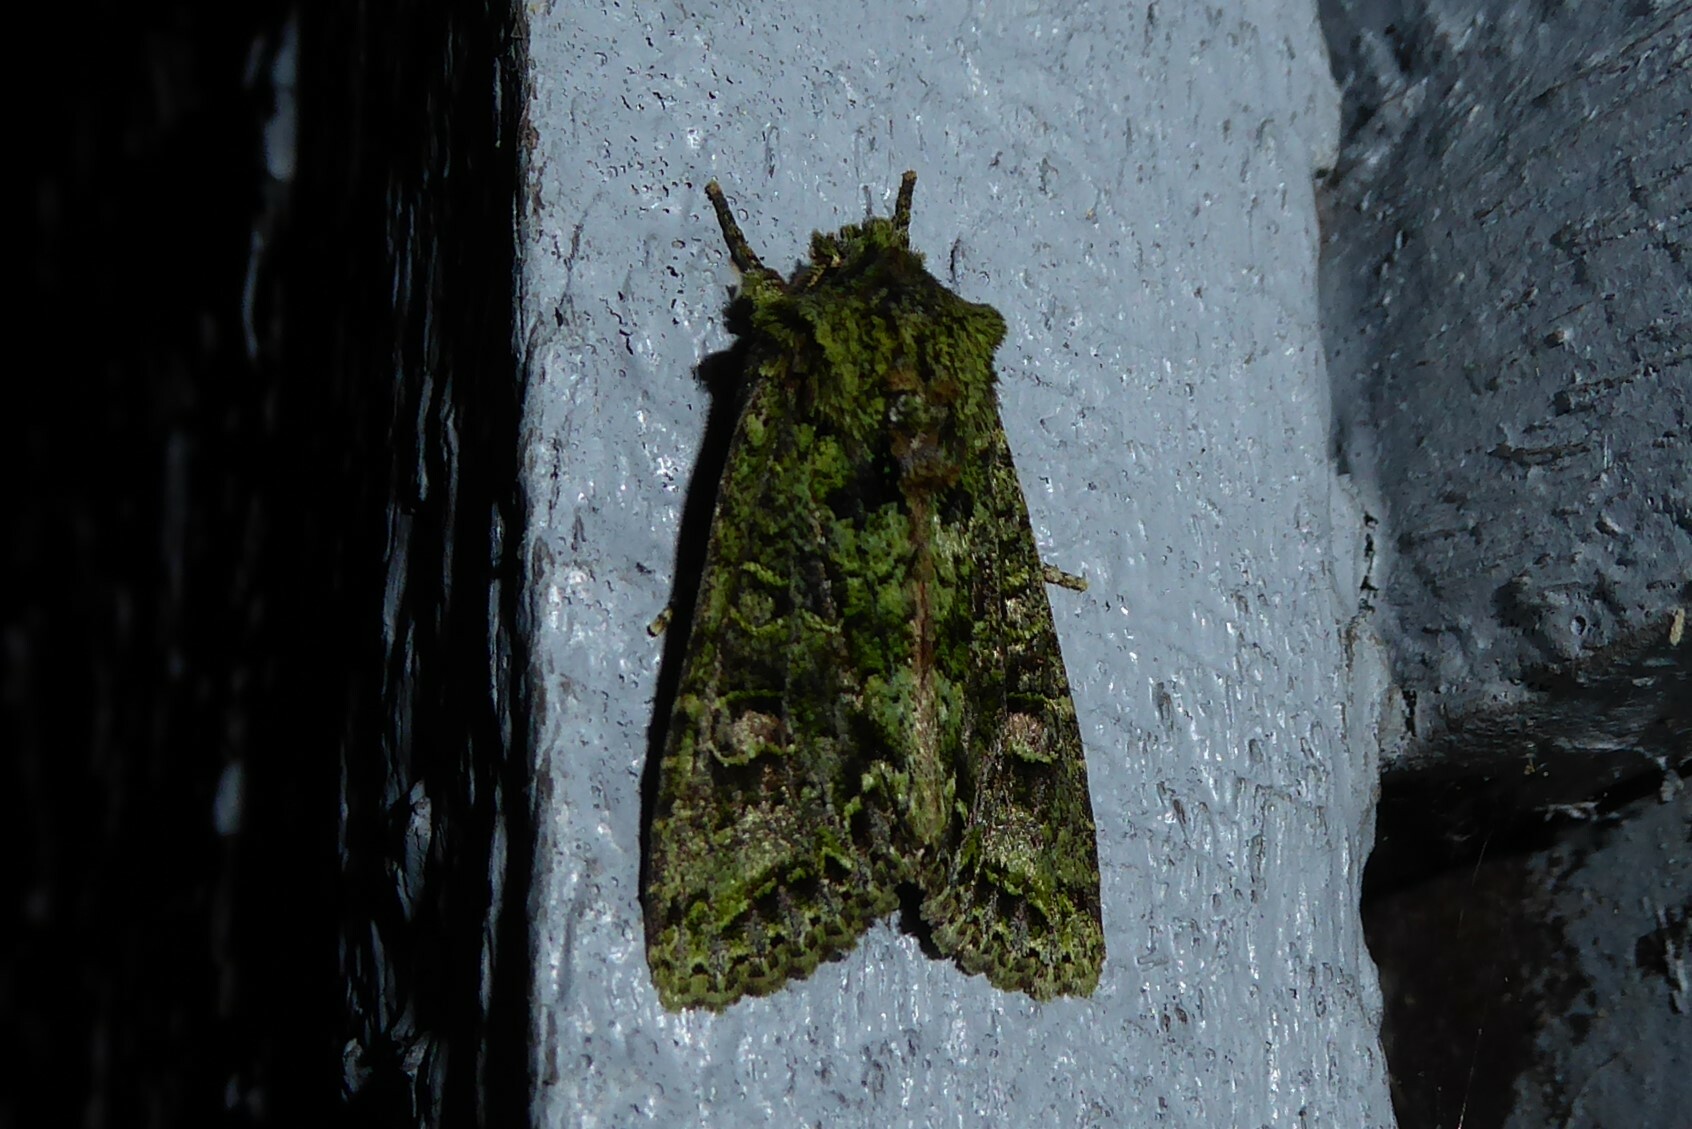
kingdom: Animalia
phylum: Arthropoda
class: Insecta
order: Lepidoptera
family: Noctuidae
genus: Ichneutica
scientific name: Ichneutica
